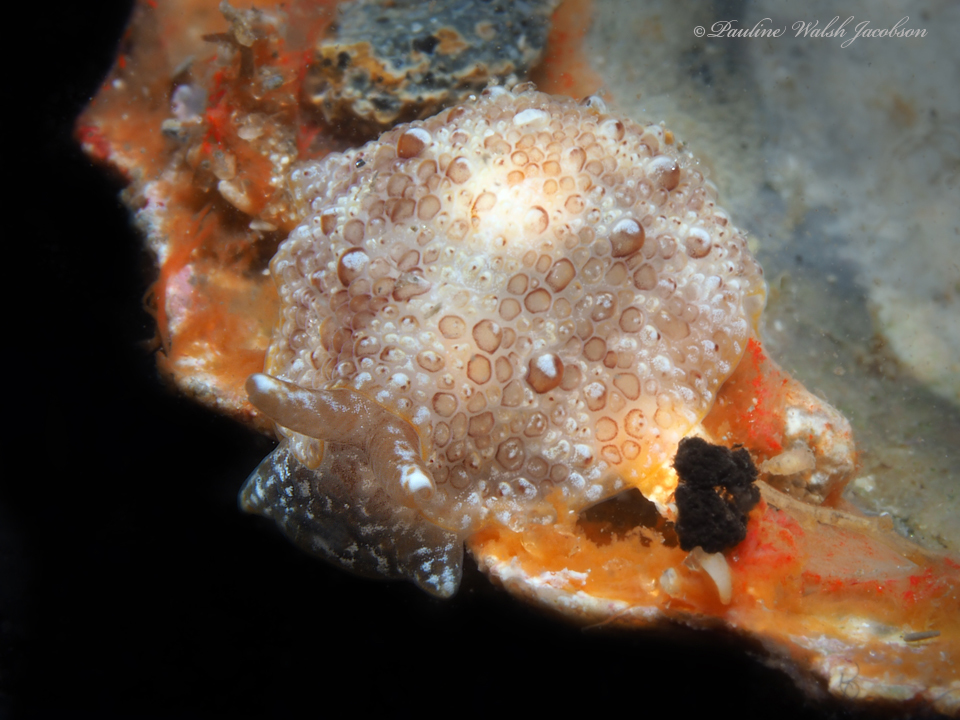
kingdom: Animalia
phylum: Mollusca
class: Gastropoda
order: Pleurobranchida
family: Pleurobranchidae
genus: Pleurobranchus
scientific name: Pleurobranchus areolatus
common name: Atlantic sidegill slug
